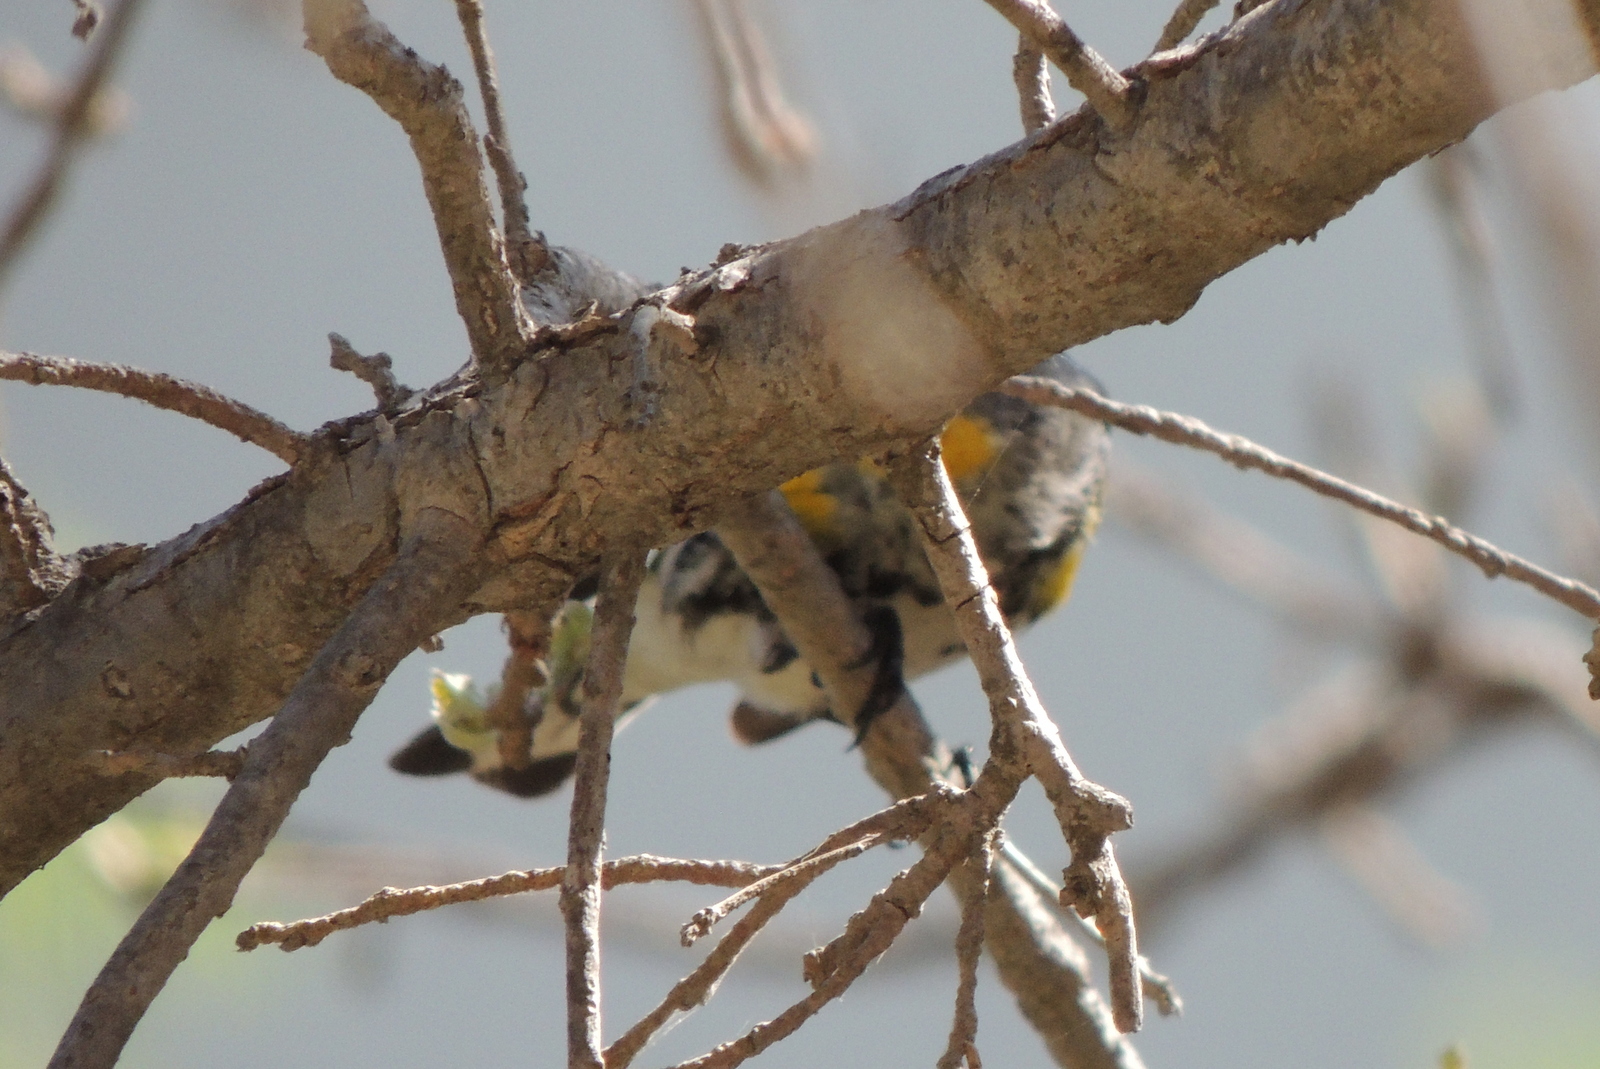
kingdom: Animalia
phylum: Chordata
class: Aves
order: Passeriformes
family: Parulidae
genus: Setophaga
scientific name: Setophaga coronata
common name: Myrtle warbler
